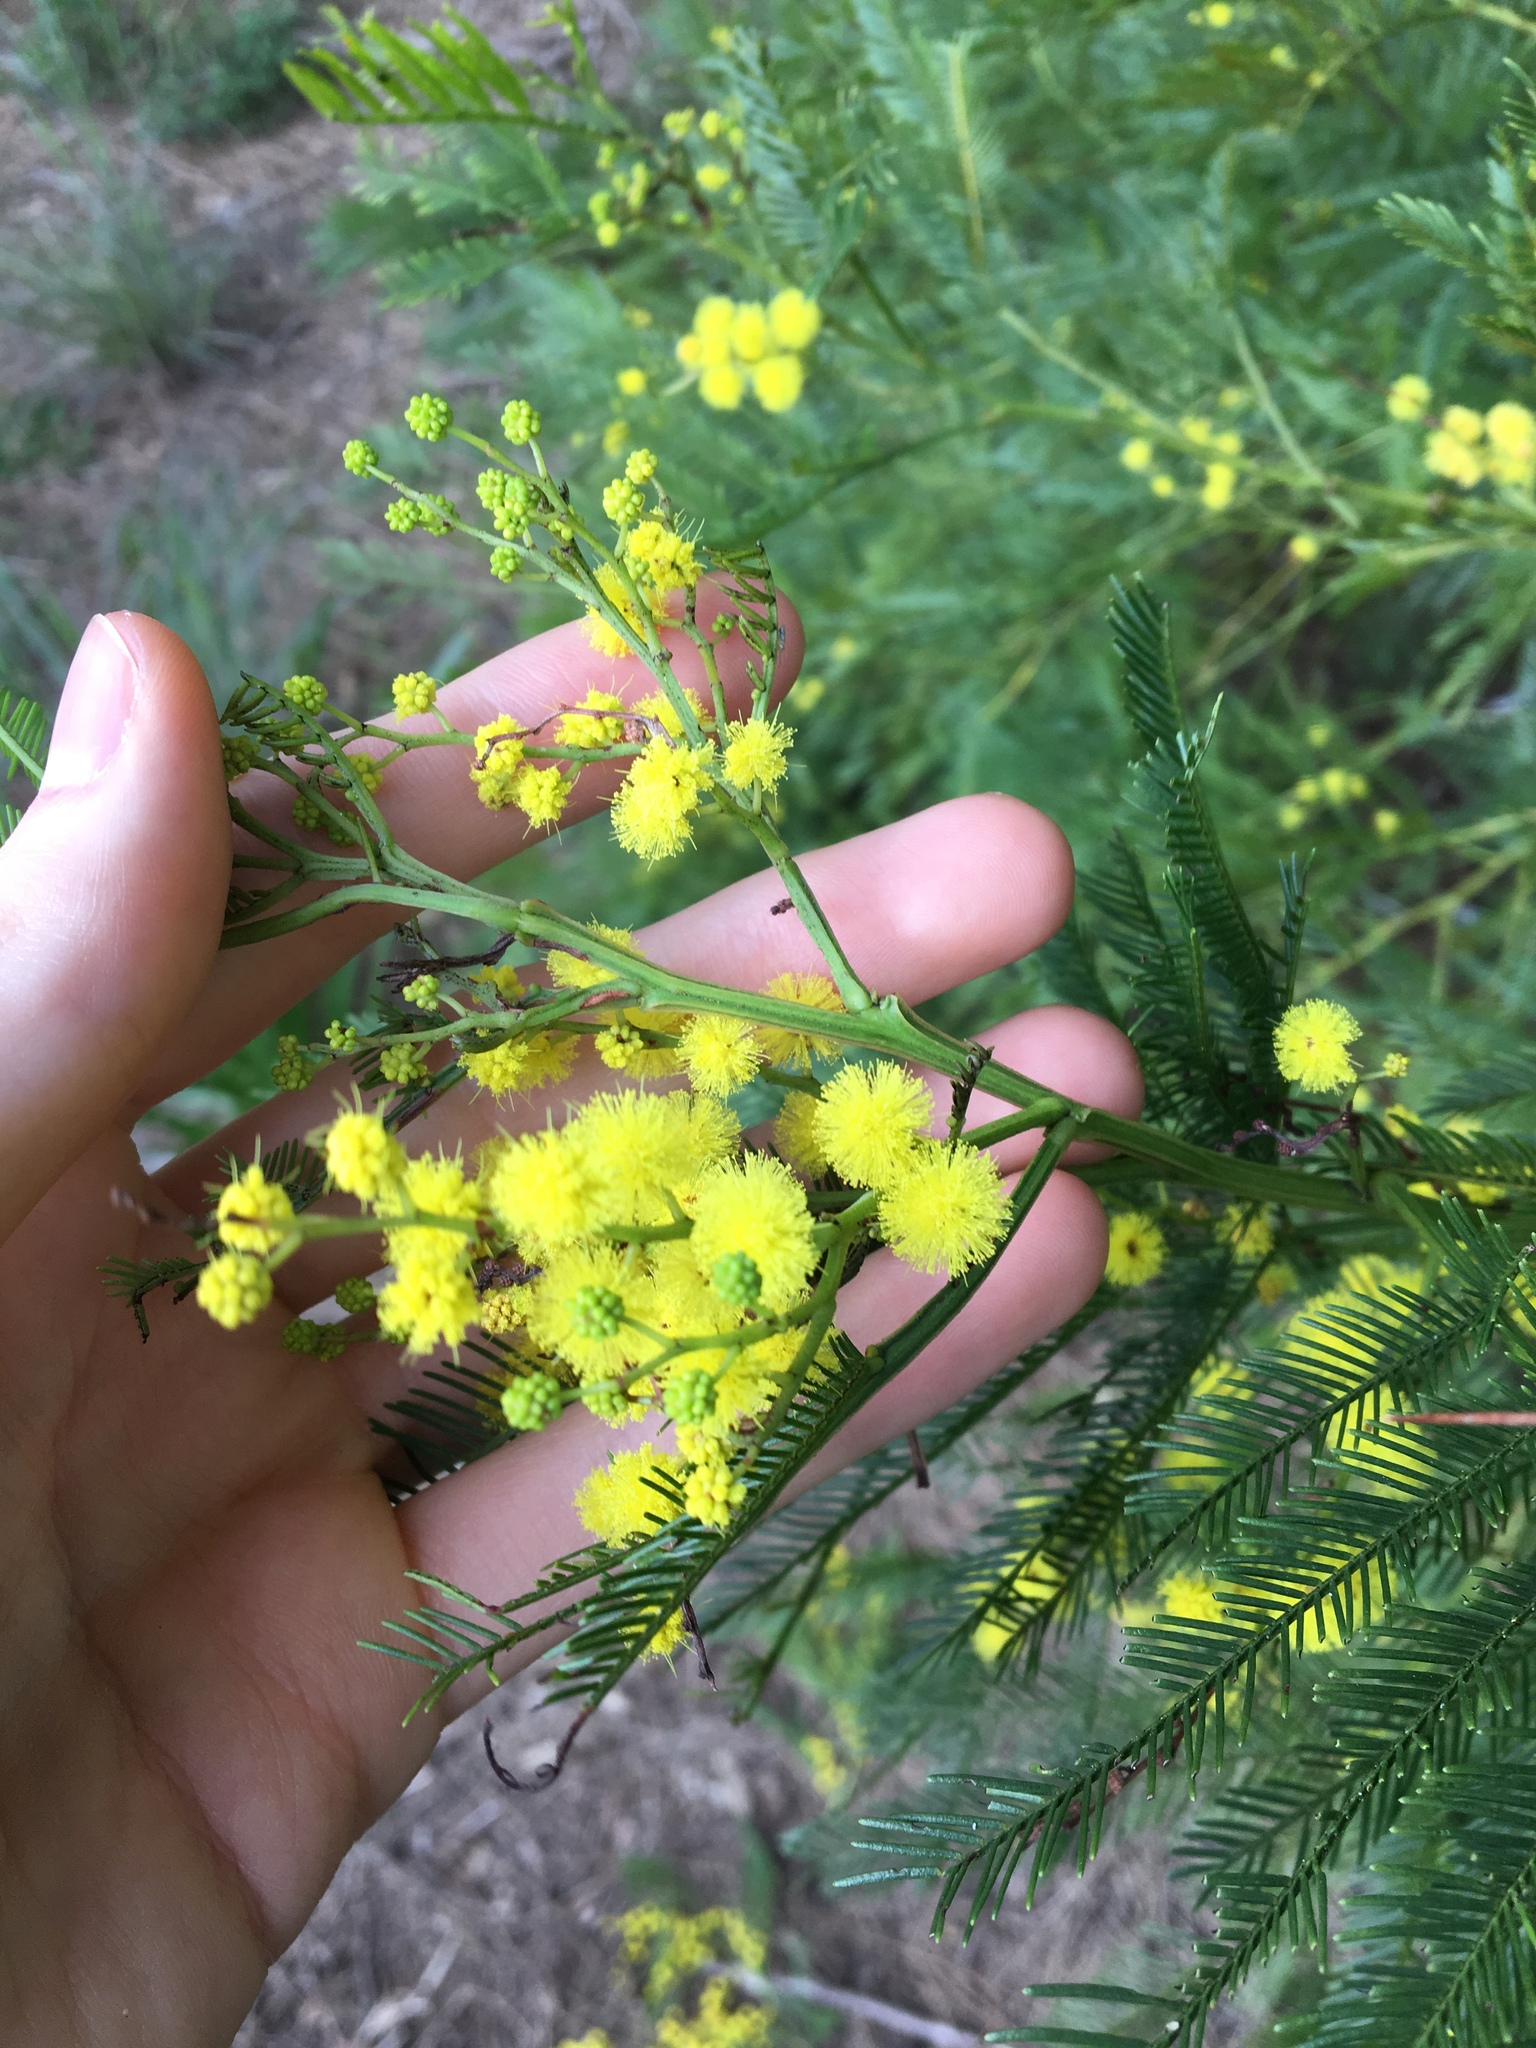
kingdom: Plantae
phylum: Tracheophyta
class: Magnoliopsida
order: Fabales
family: Fabaceae
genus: Acacia
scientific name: Acacia decurrens
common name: Green wattle
